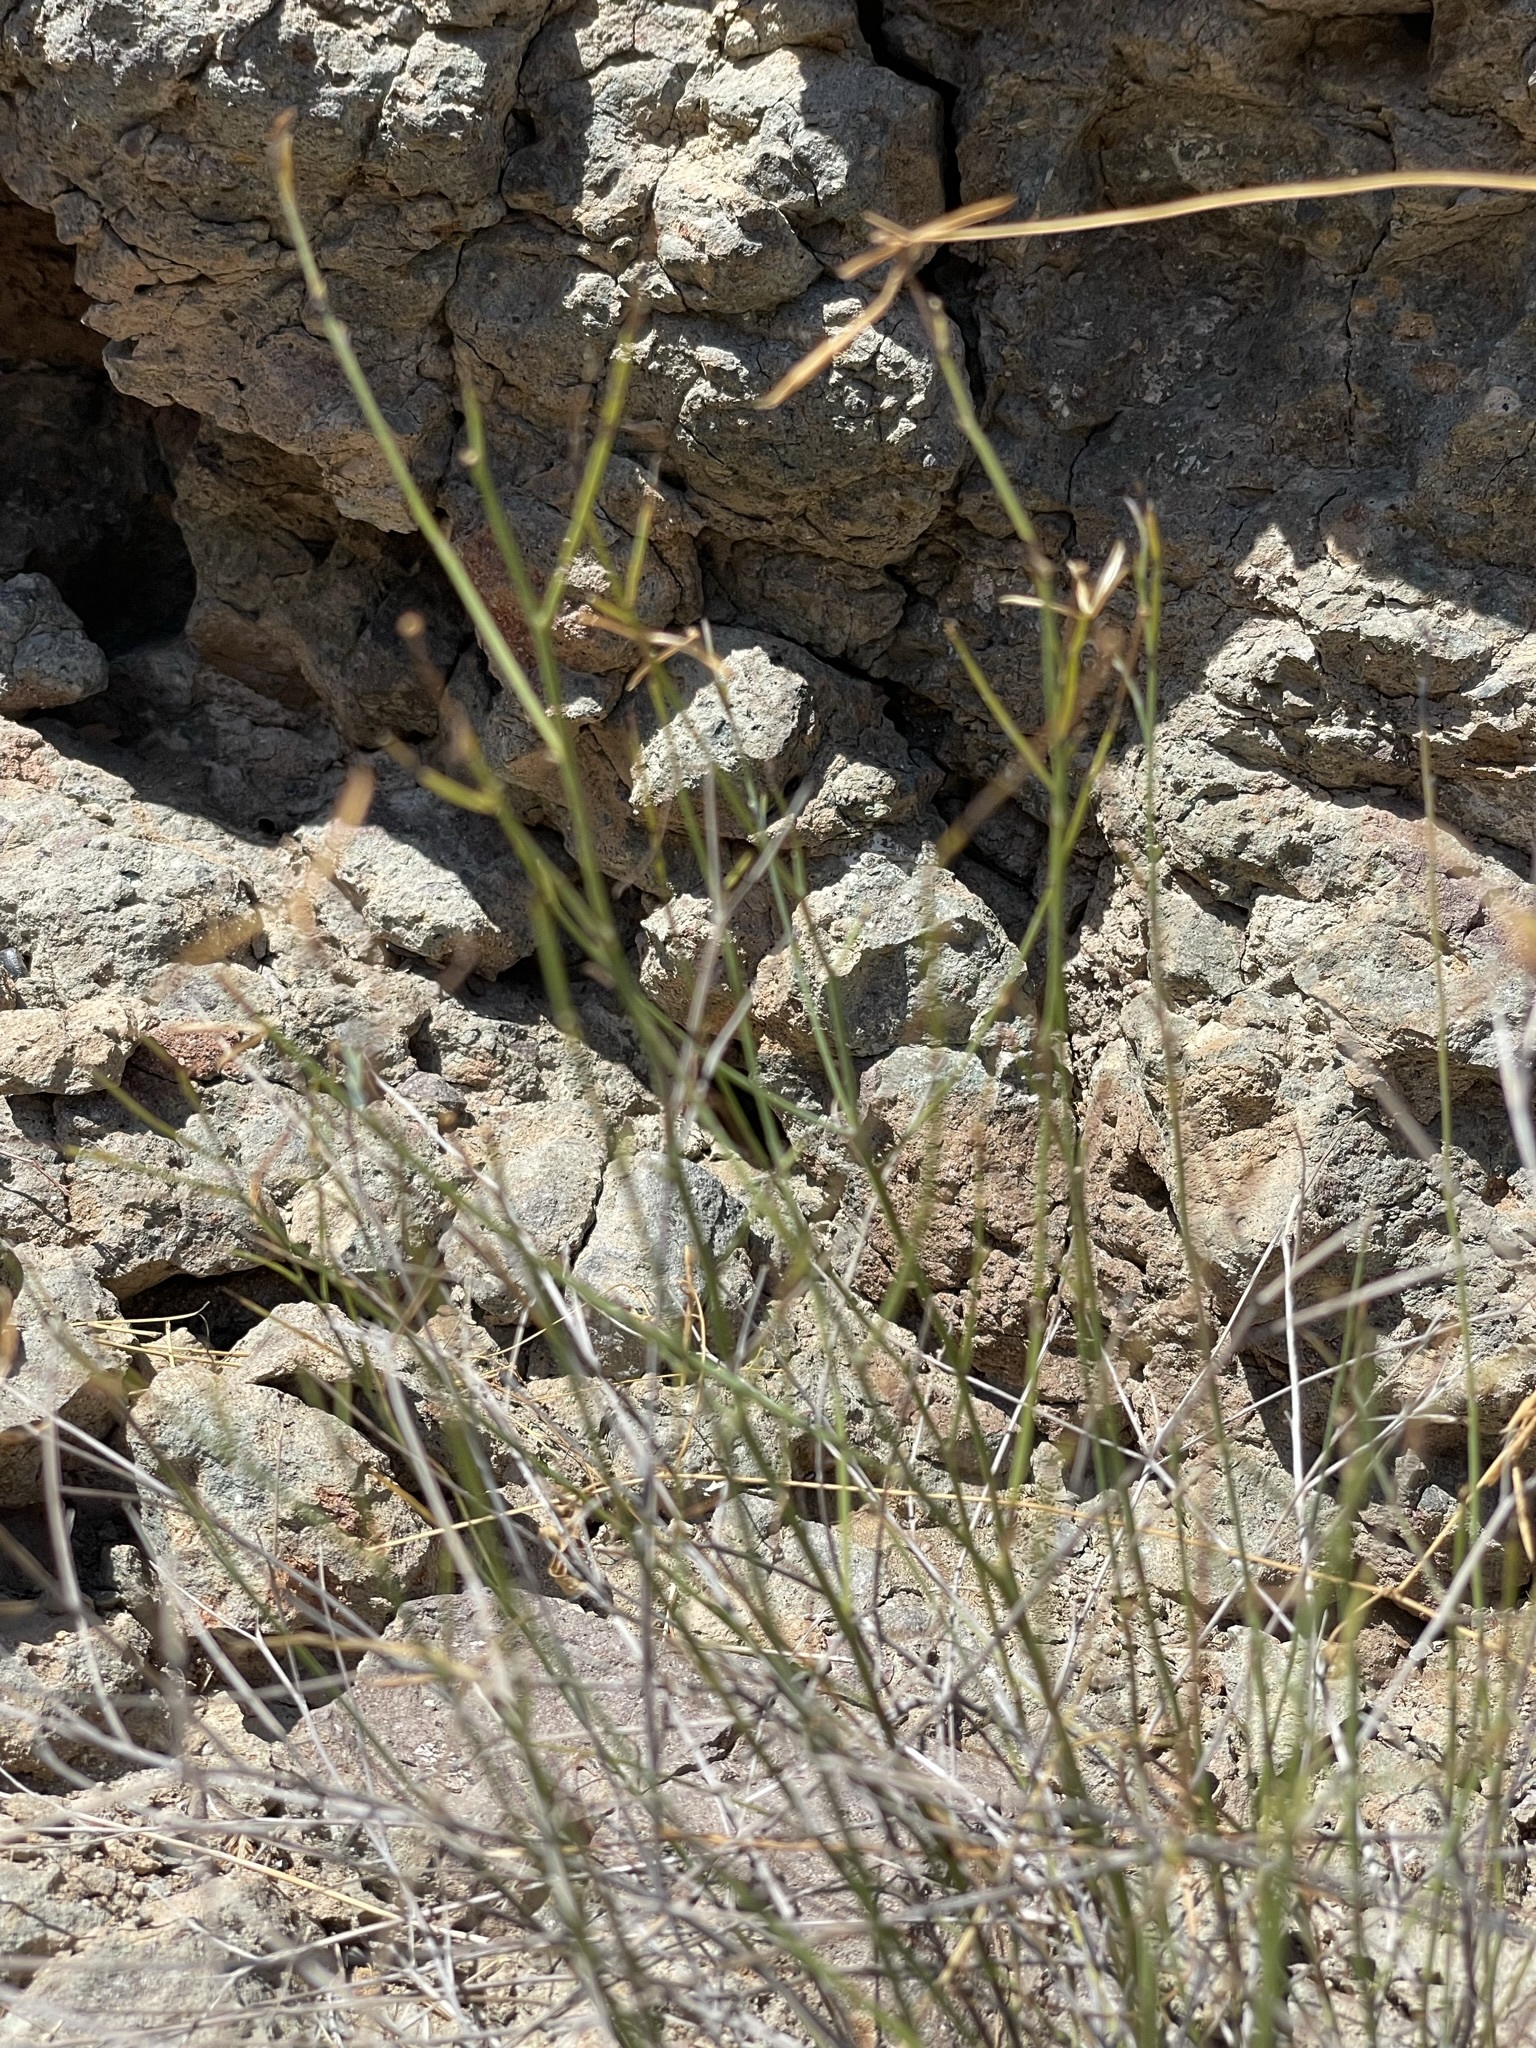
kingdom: Plantae
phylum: Tracheophyta
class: Magnoliopsida
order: Asterales
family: Asteraceae
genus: Bebbia
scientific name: Bebbia juncea
